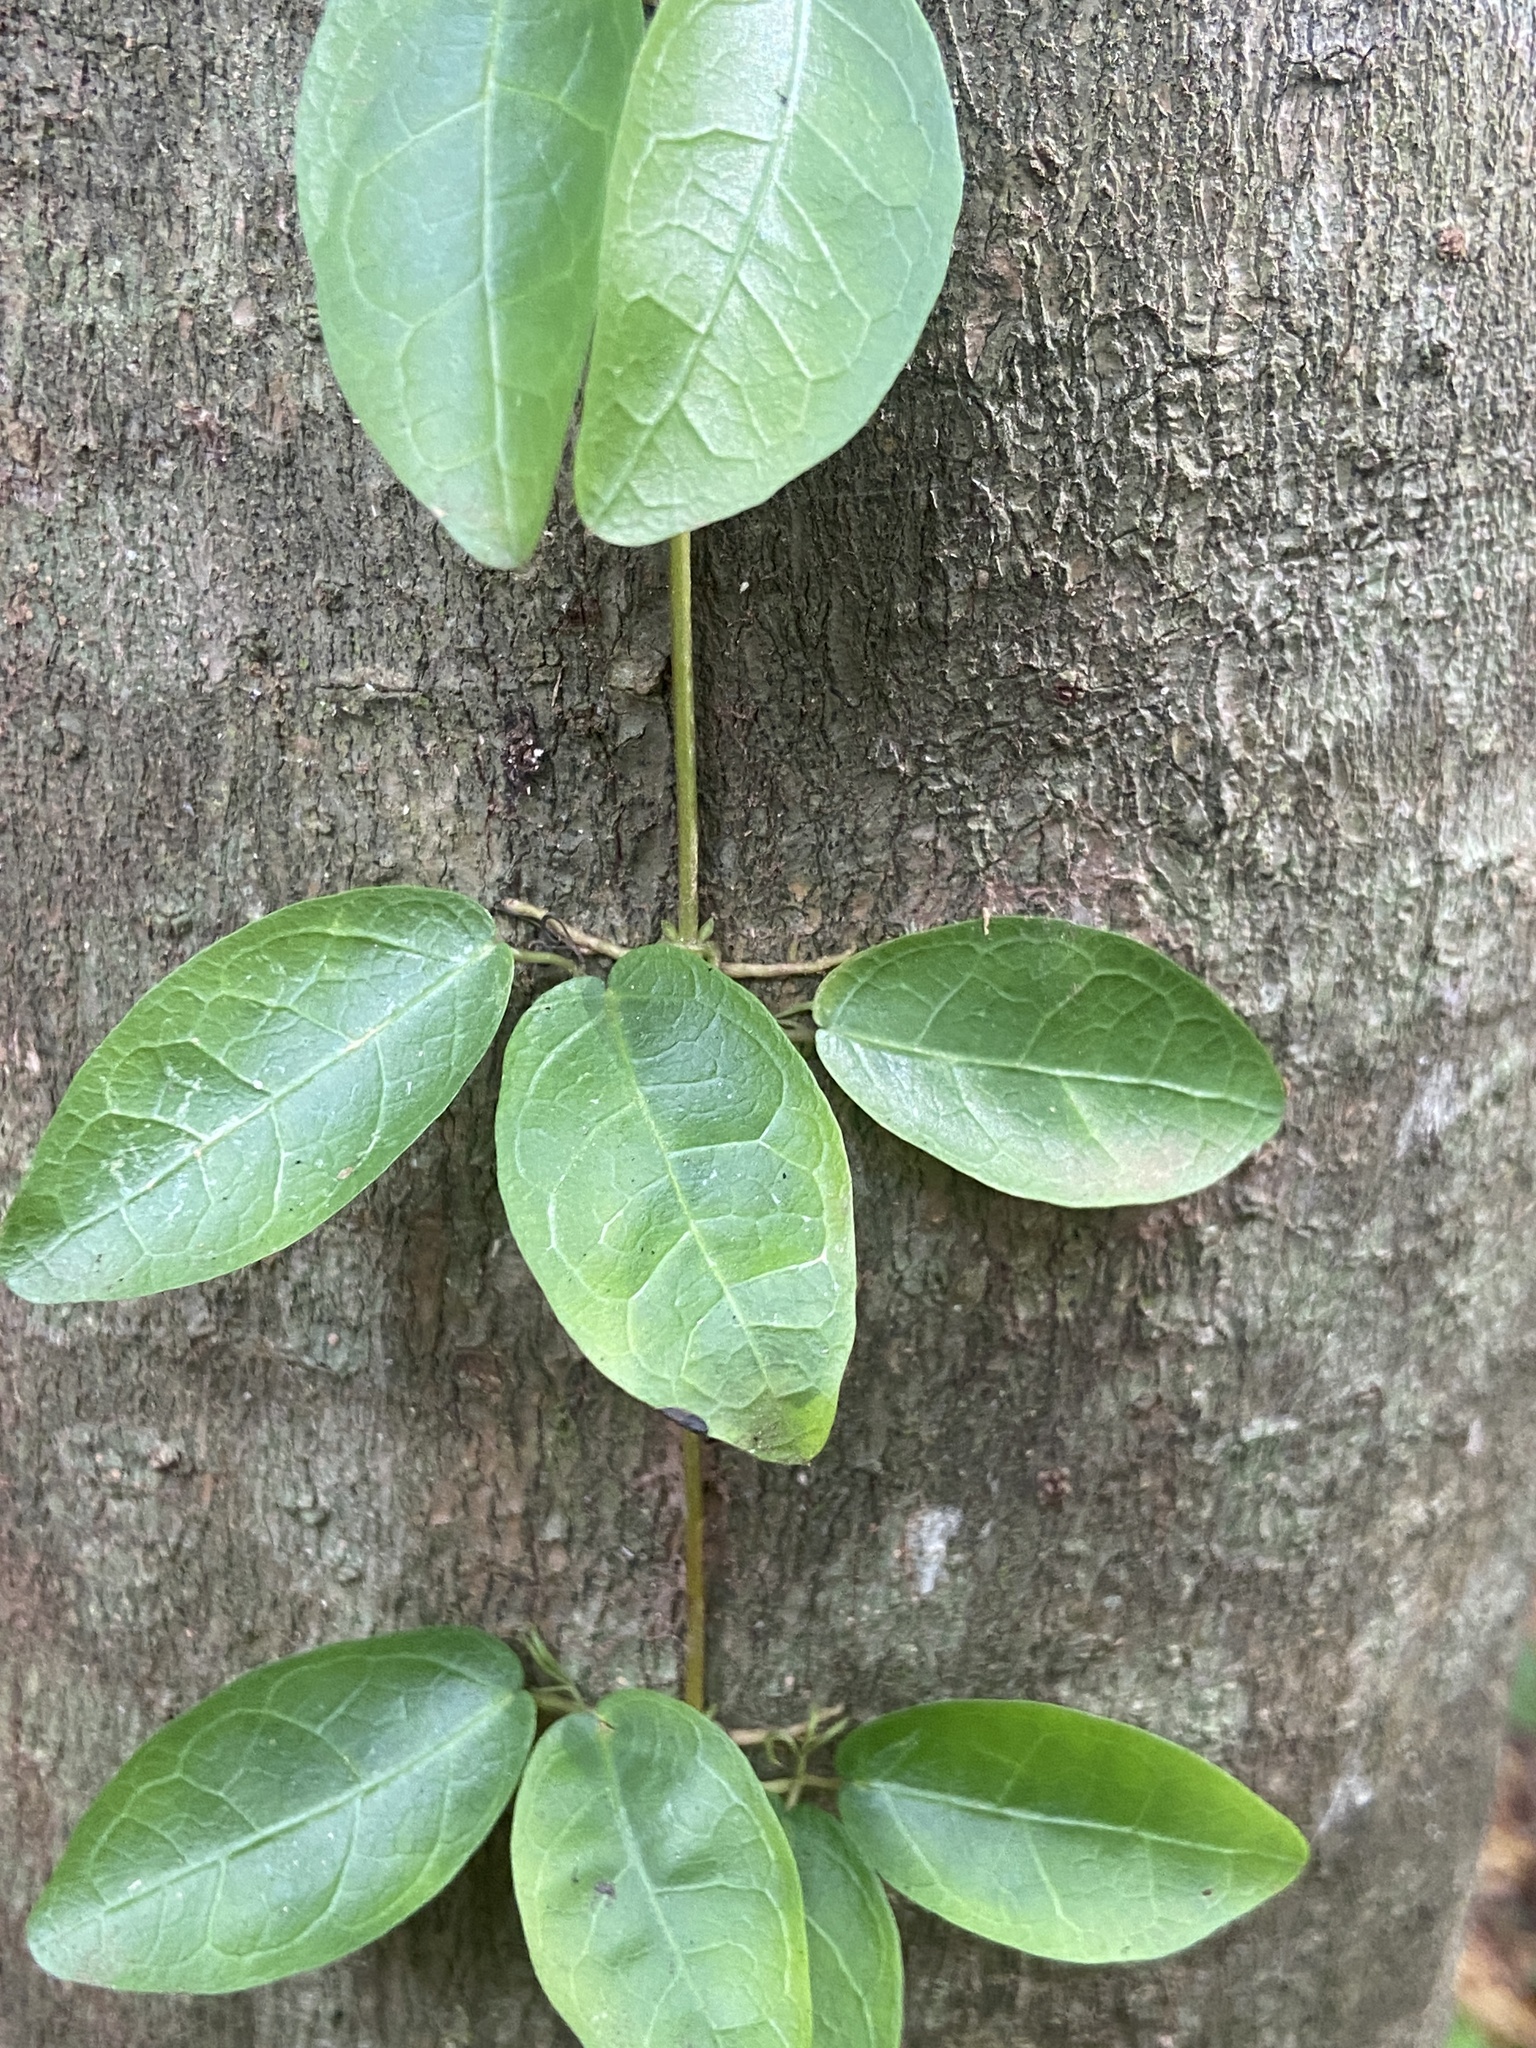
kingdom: Plantae
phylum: Tracheophyta
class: Magnoliopsida
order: Lamiales
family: Bignoniaceae
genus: Dolichandra
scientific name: Dolichandra unguis-cati
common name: Catclaw vine
